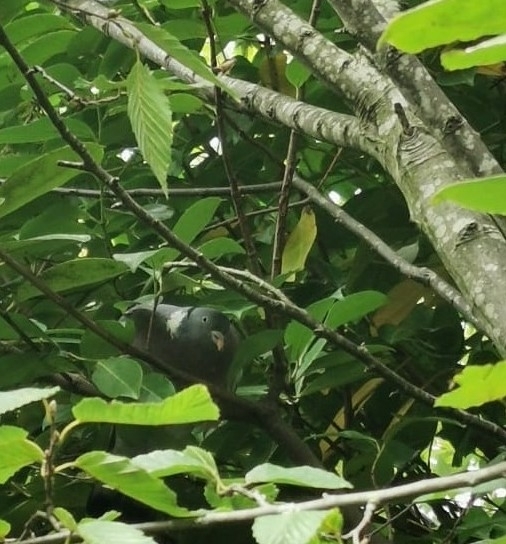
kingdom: Animalia
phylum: Chordata
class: Aves
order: Columbiformes
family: Columbidae
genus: Columba
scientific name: Columba palumbus
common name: Common wood pigeon
